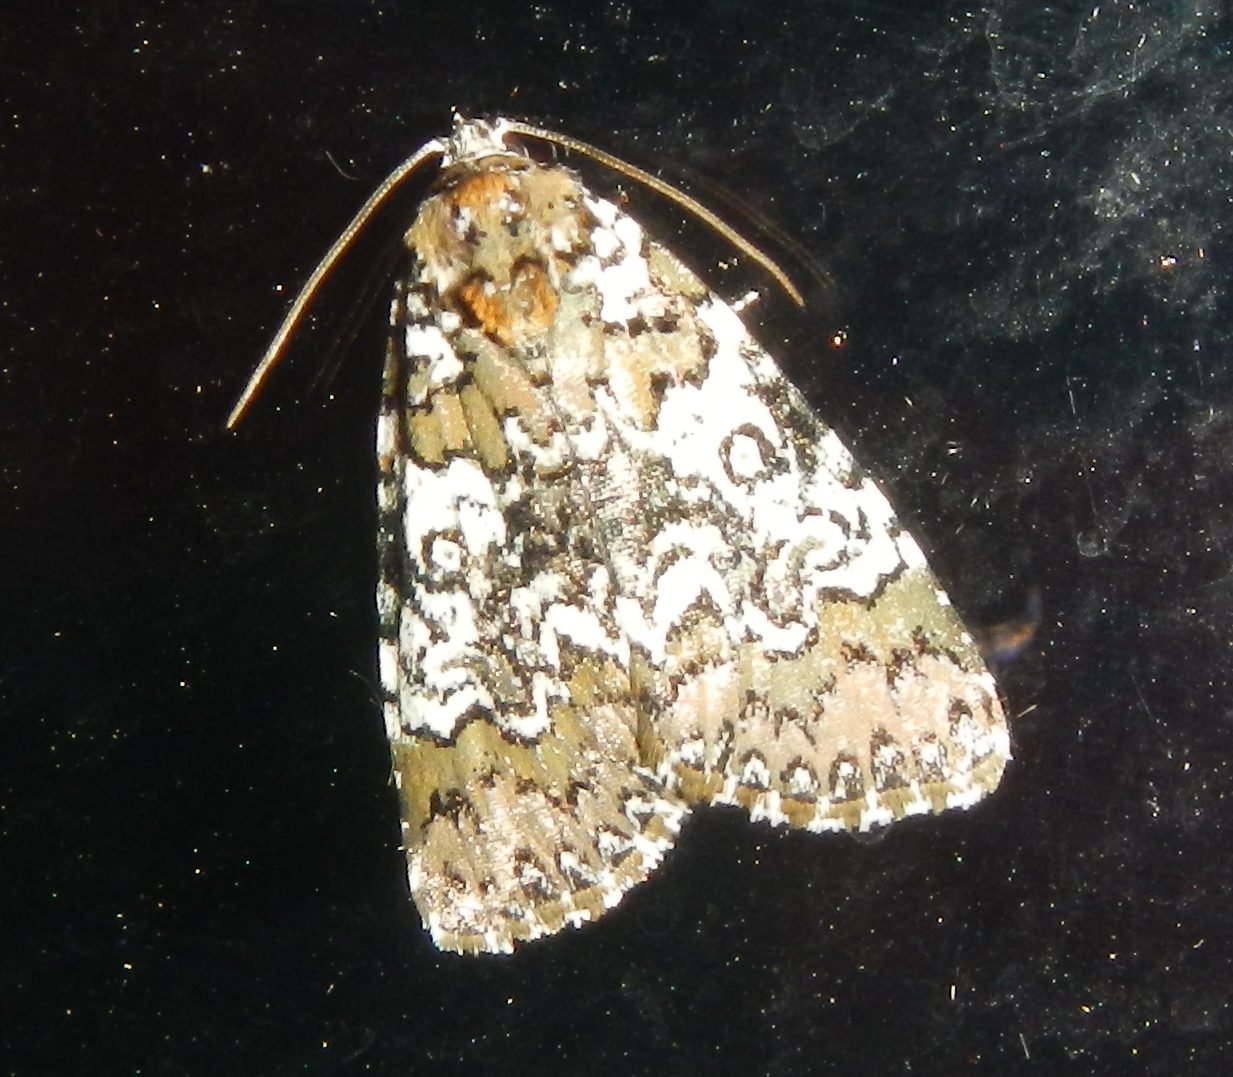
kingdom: Animalia
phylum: Arthropoda
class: Insecta
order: Lepidoptera
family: Noctuidae
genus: Cerma
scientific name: Cerma cora
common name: Bird dropping moth
